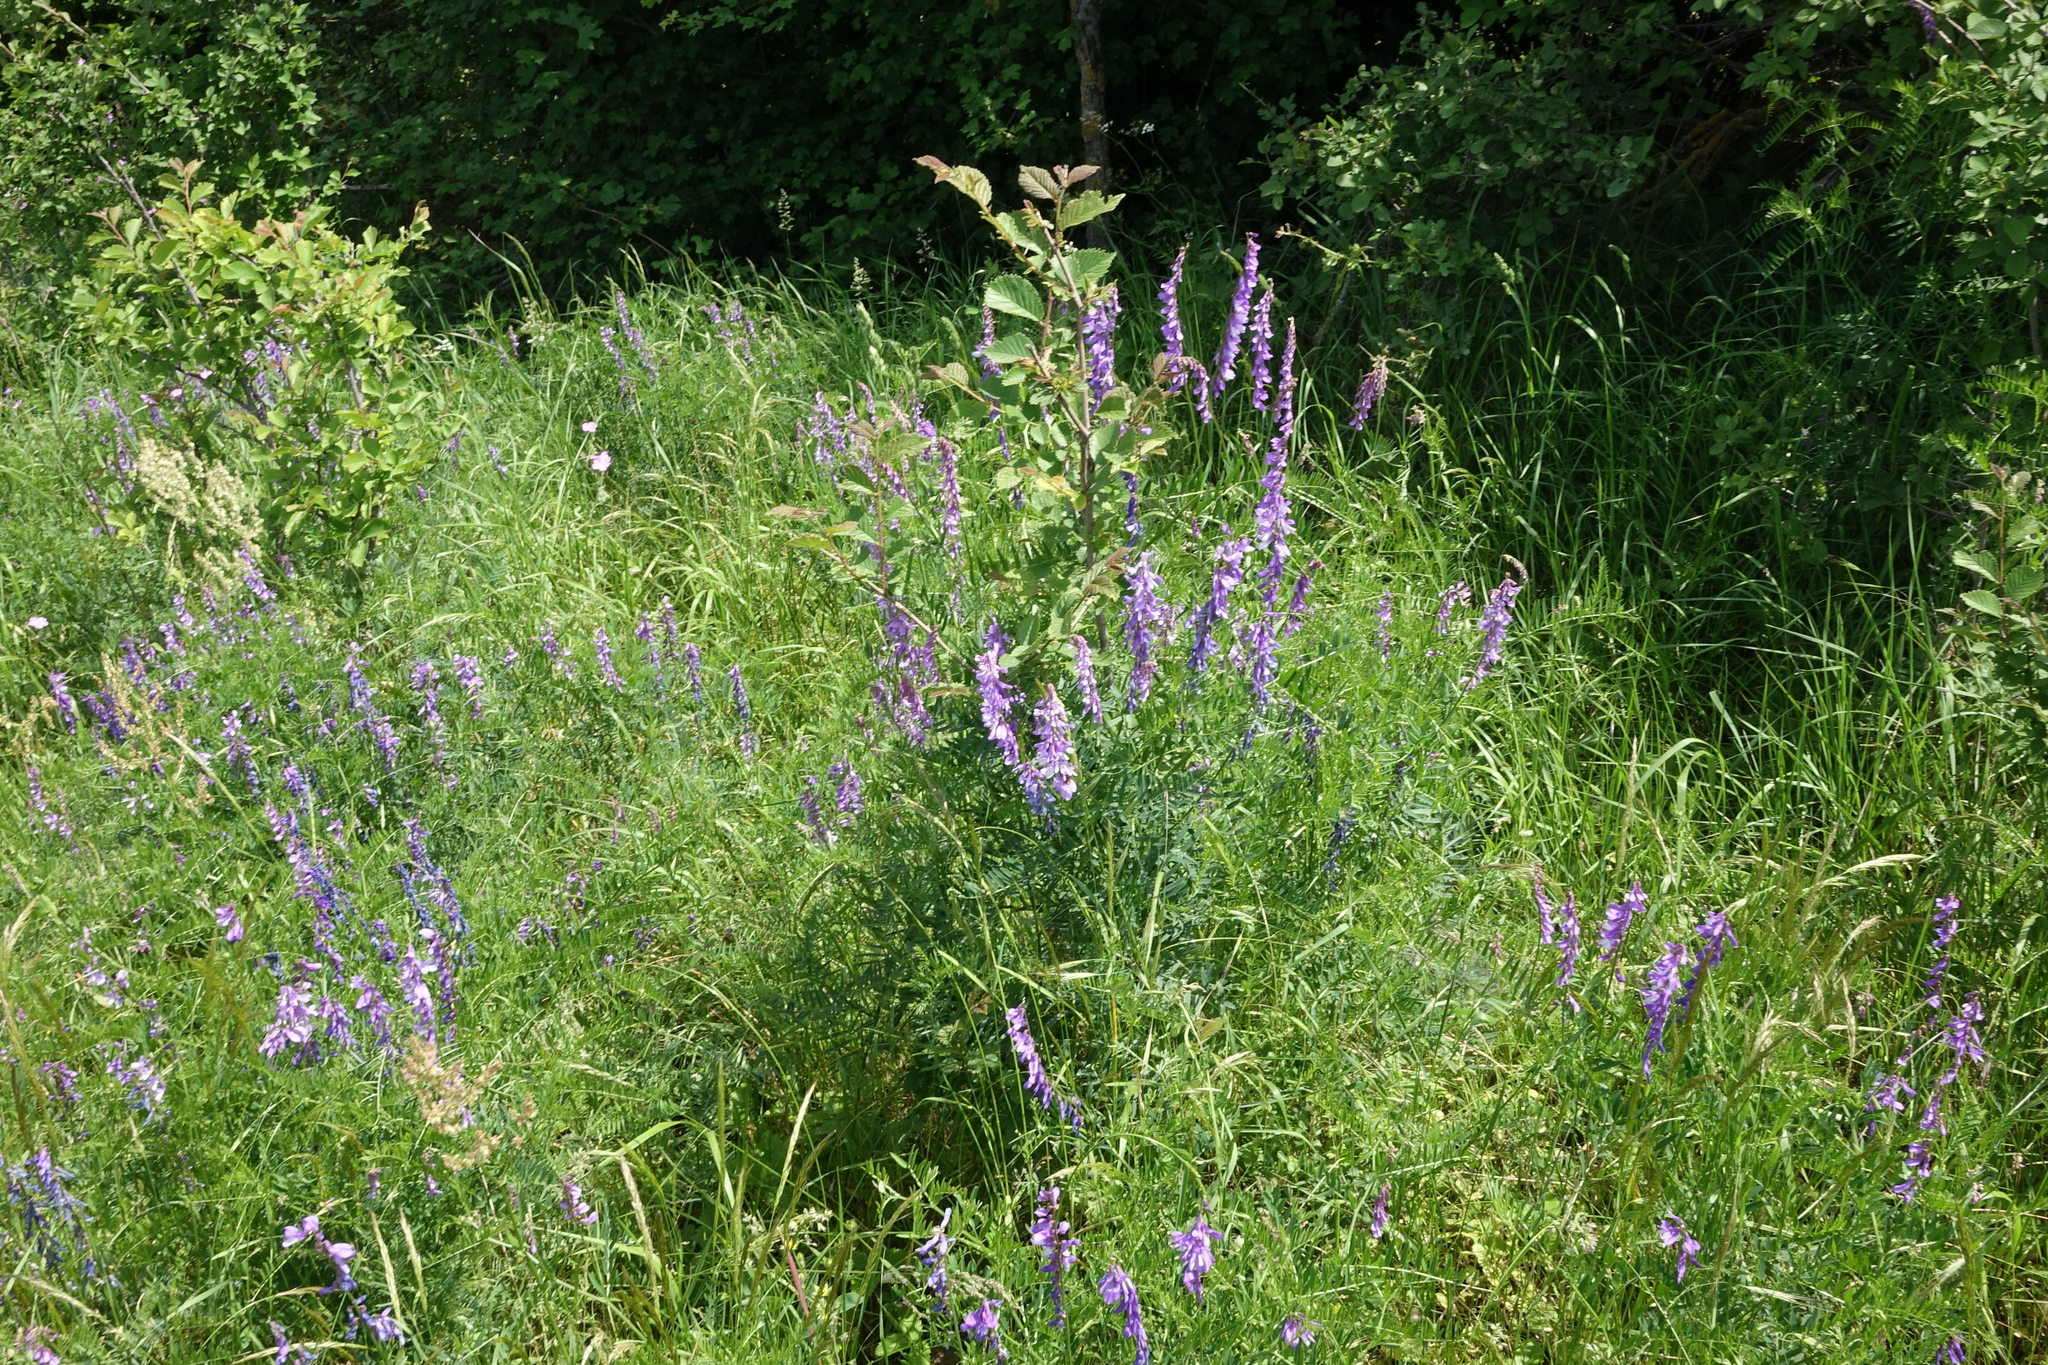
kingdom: Plantae
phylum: Tracheophyta
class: Magnoliopsida
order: Fabales
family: Fabaceae
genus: Vicia
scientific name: Vicia tenuifolia
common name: Fine-leaved vetch
